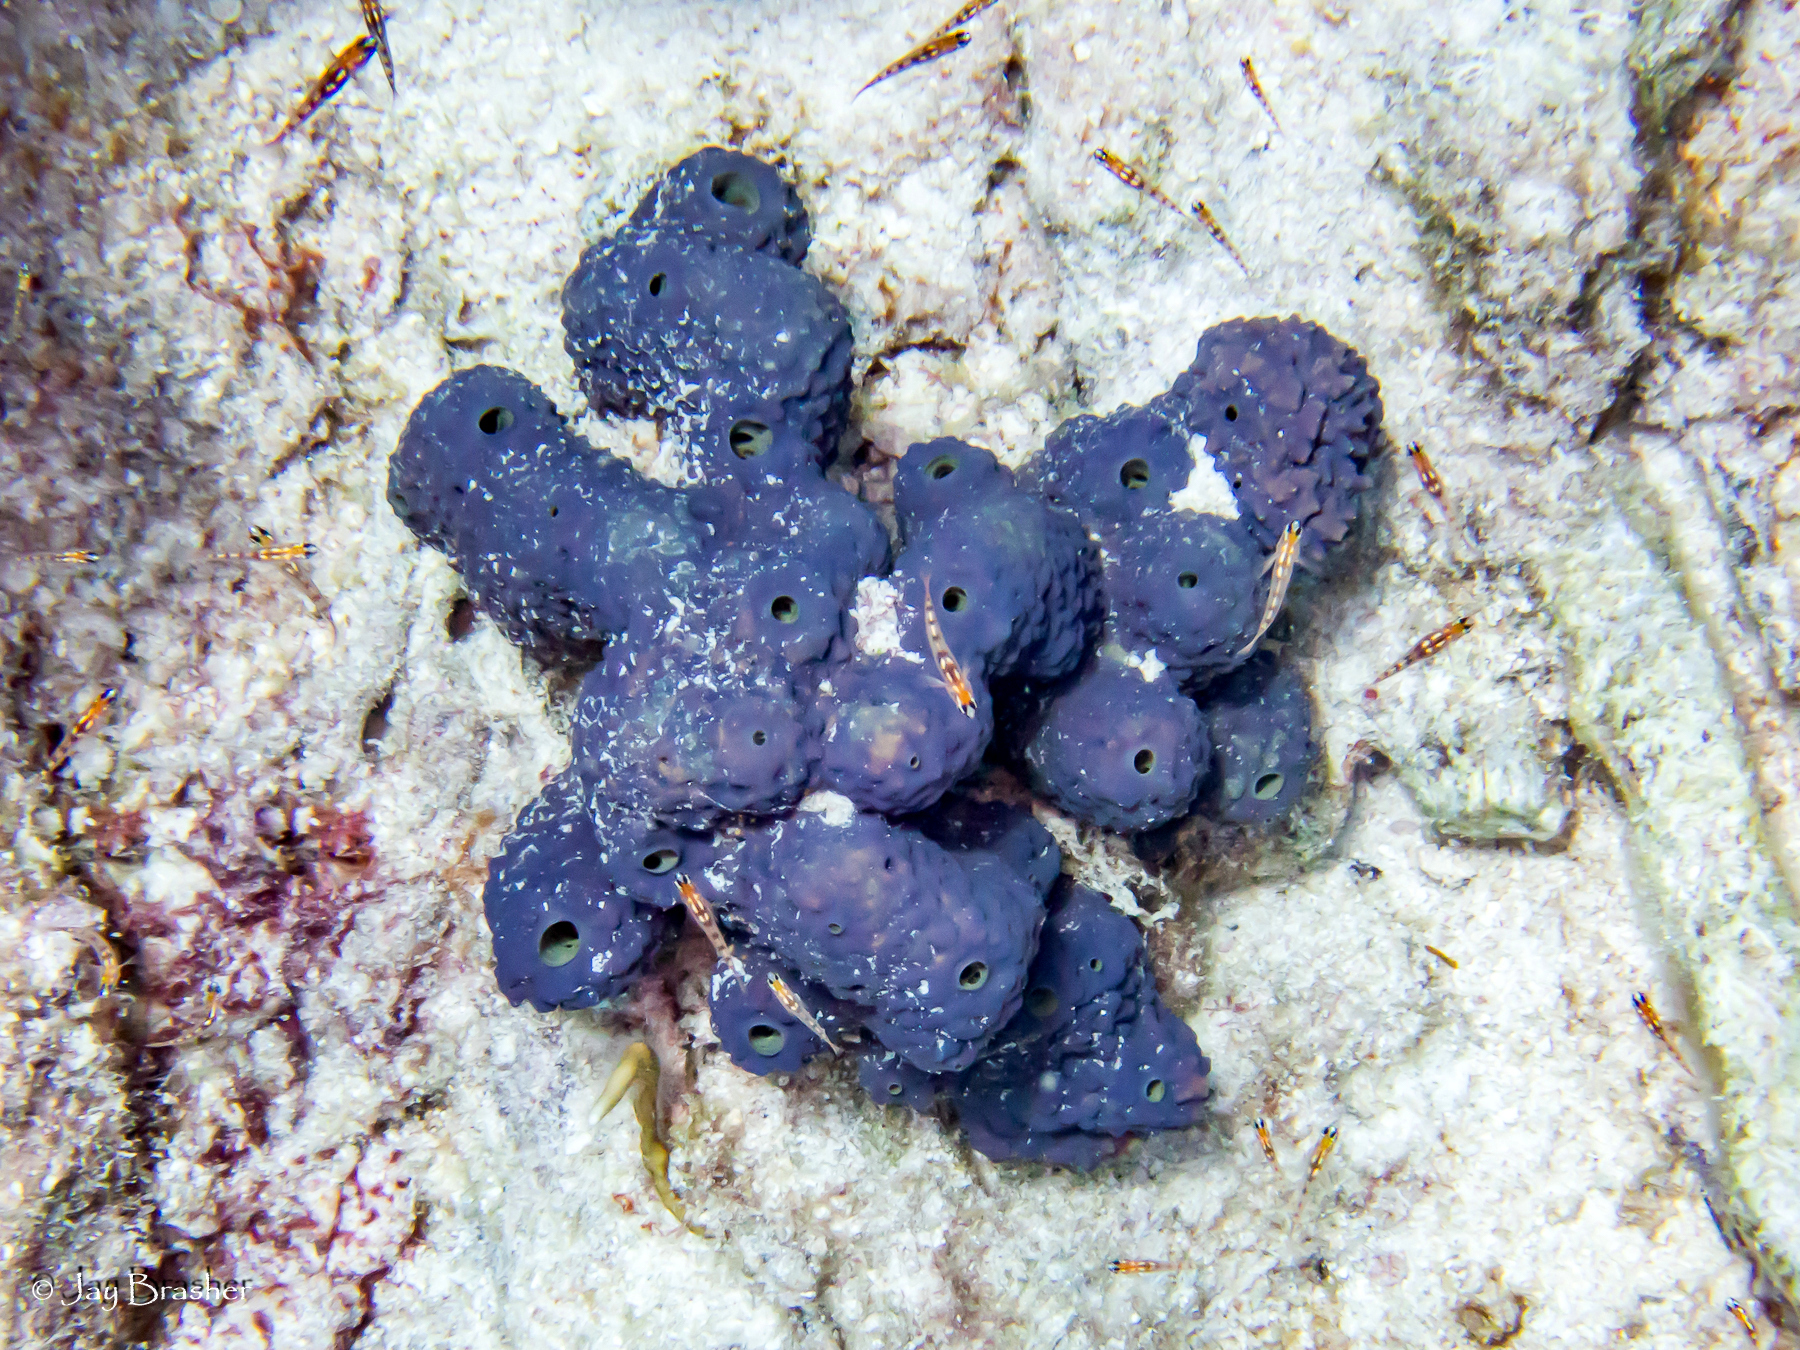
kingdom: Animalia
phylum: Porifera
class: Demospongiae
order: Verongiida
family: Aplysinidae
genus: Aiolochroia
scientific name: Aiolochroia crassa
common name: Branching tube sponge
